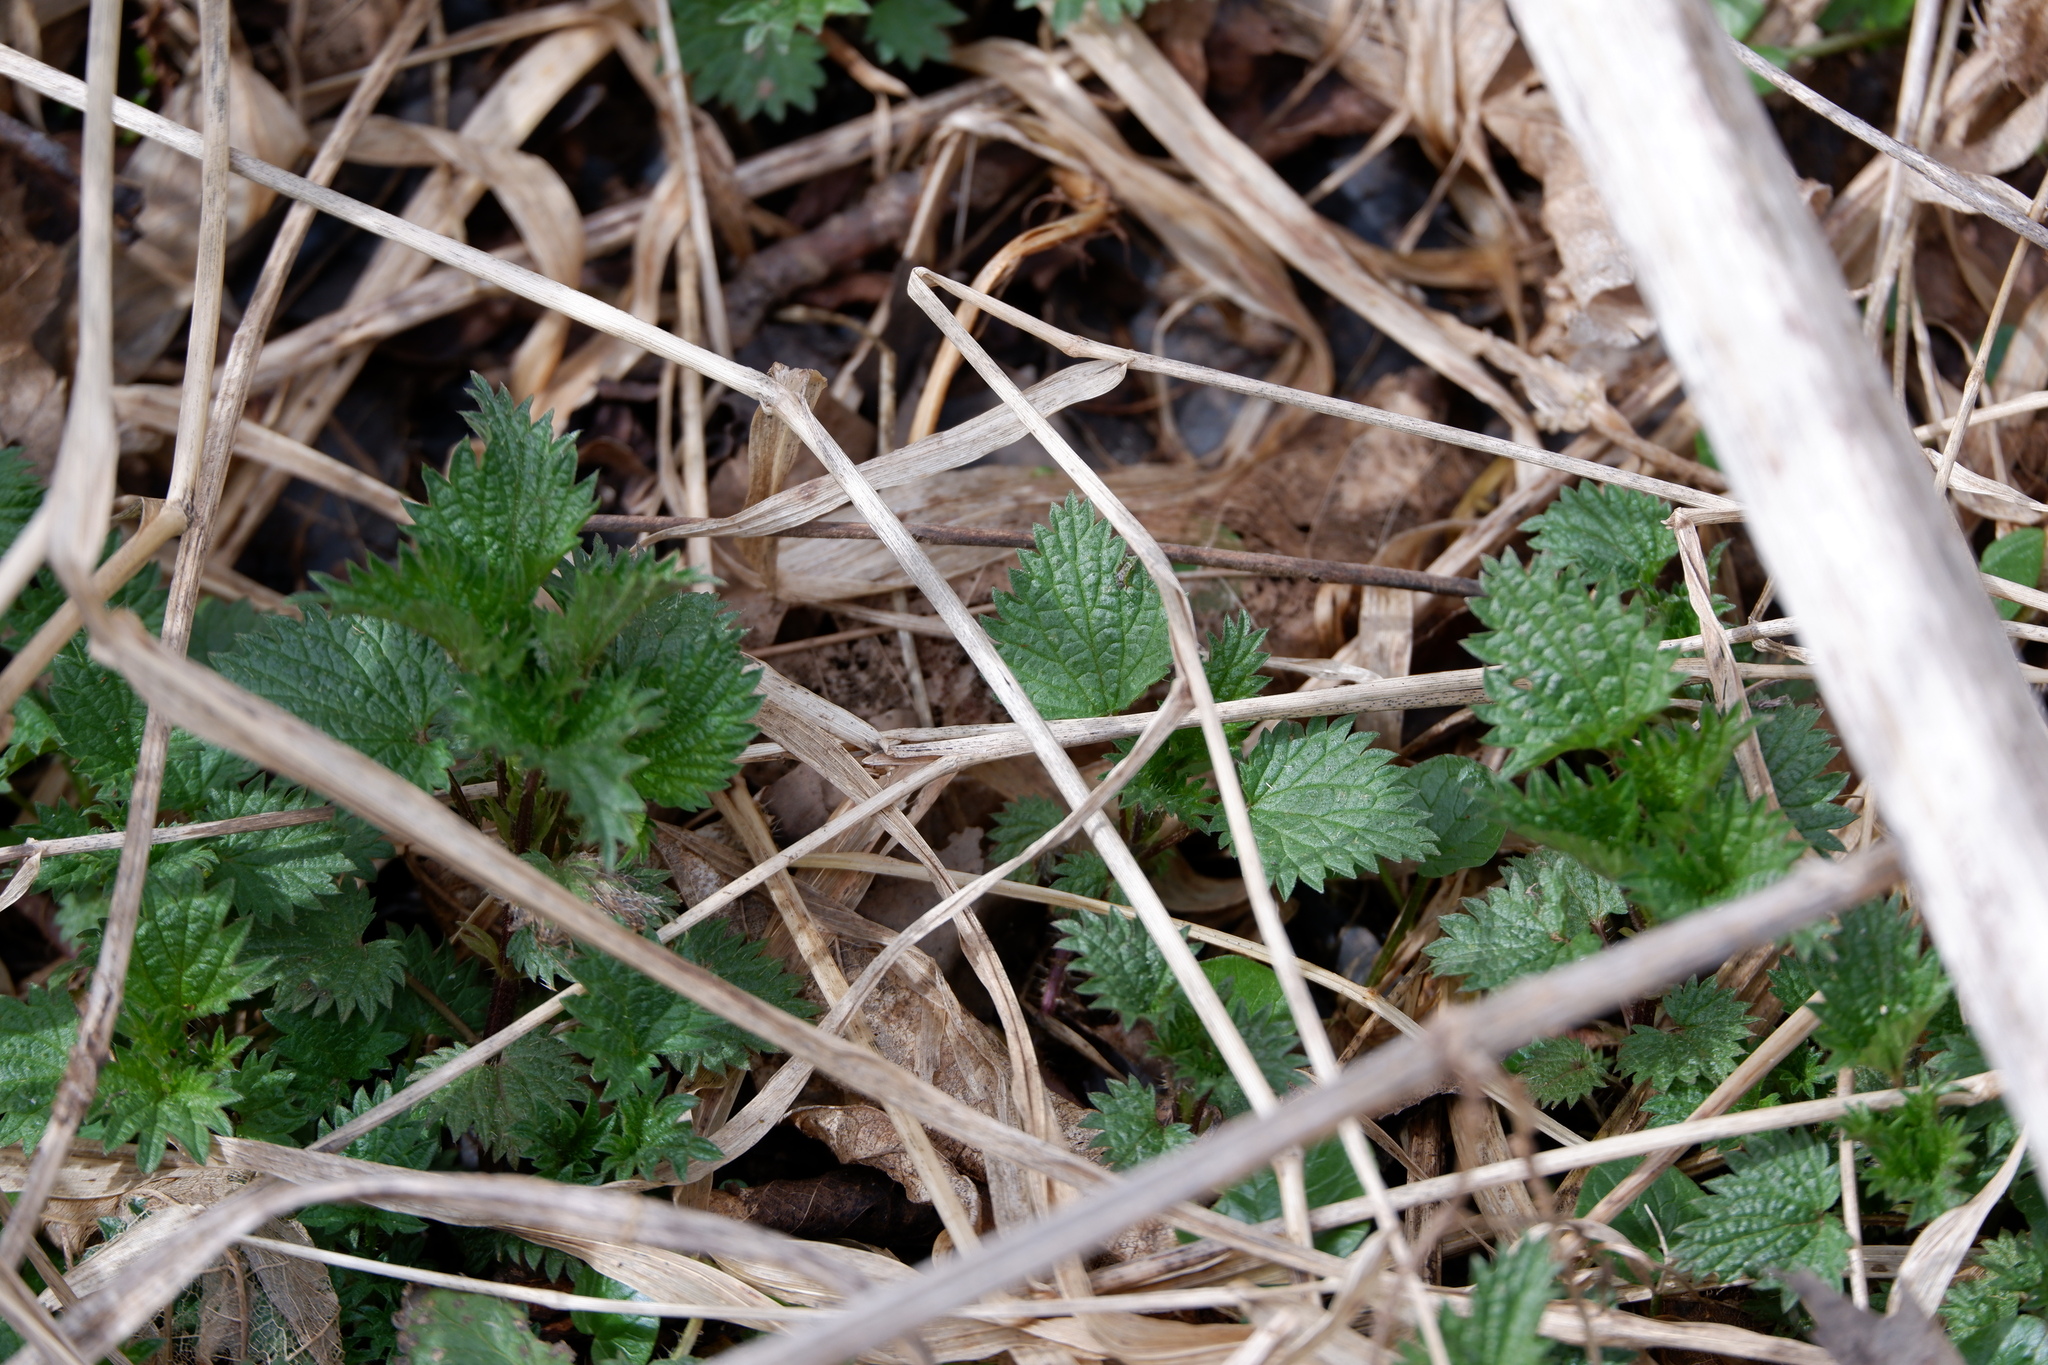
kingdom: Plantae
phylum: Tracheophyta
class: Magnoliopsida
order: Rosales
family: Urticaceae
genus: Urtica
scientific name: Urtica dioica
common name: Common nettle
